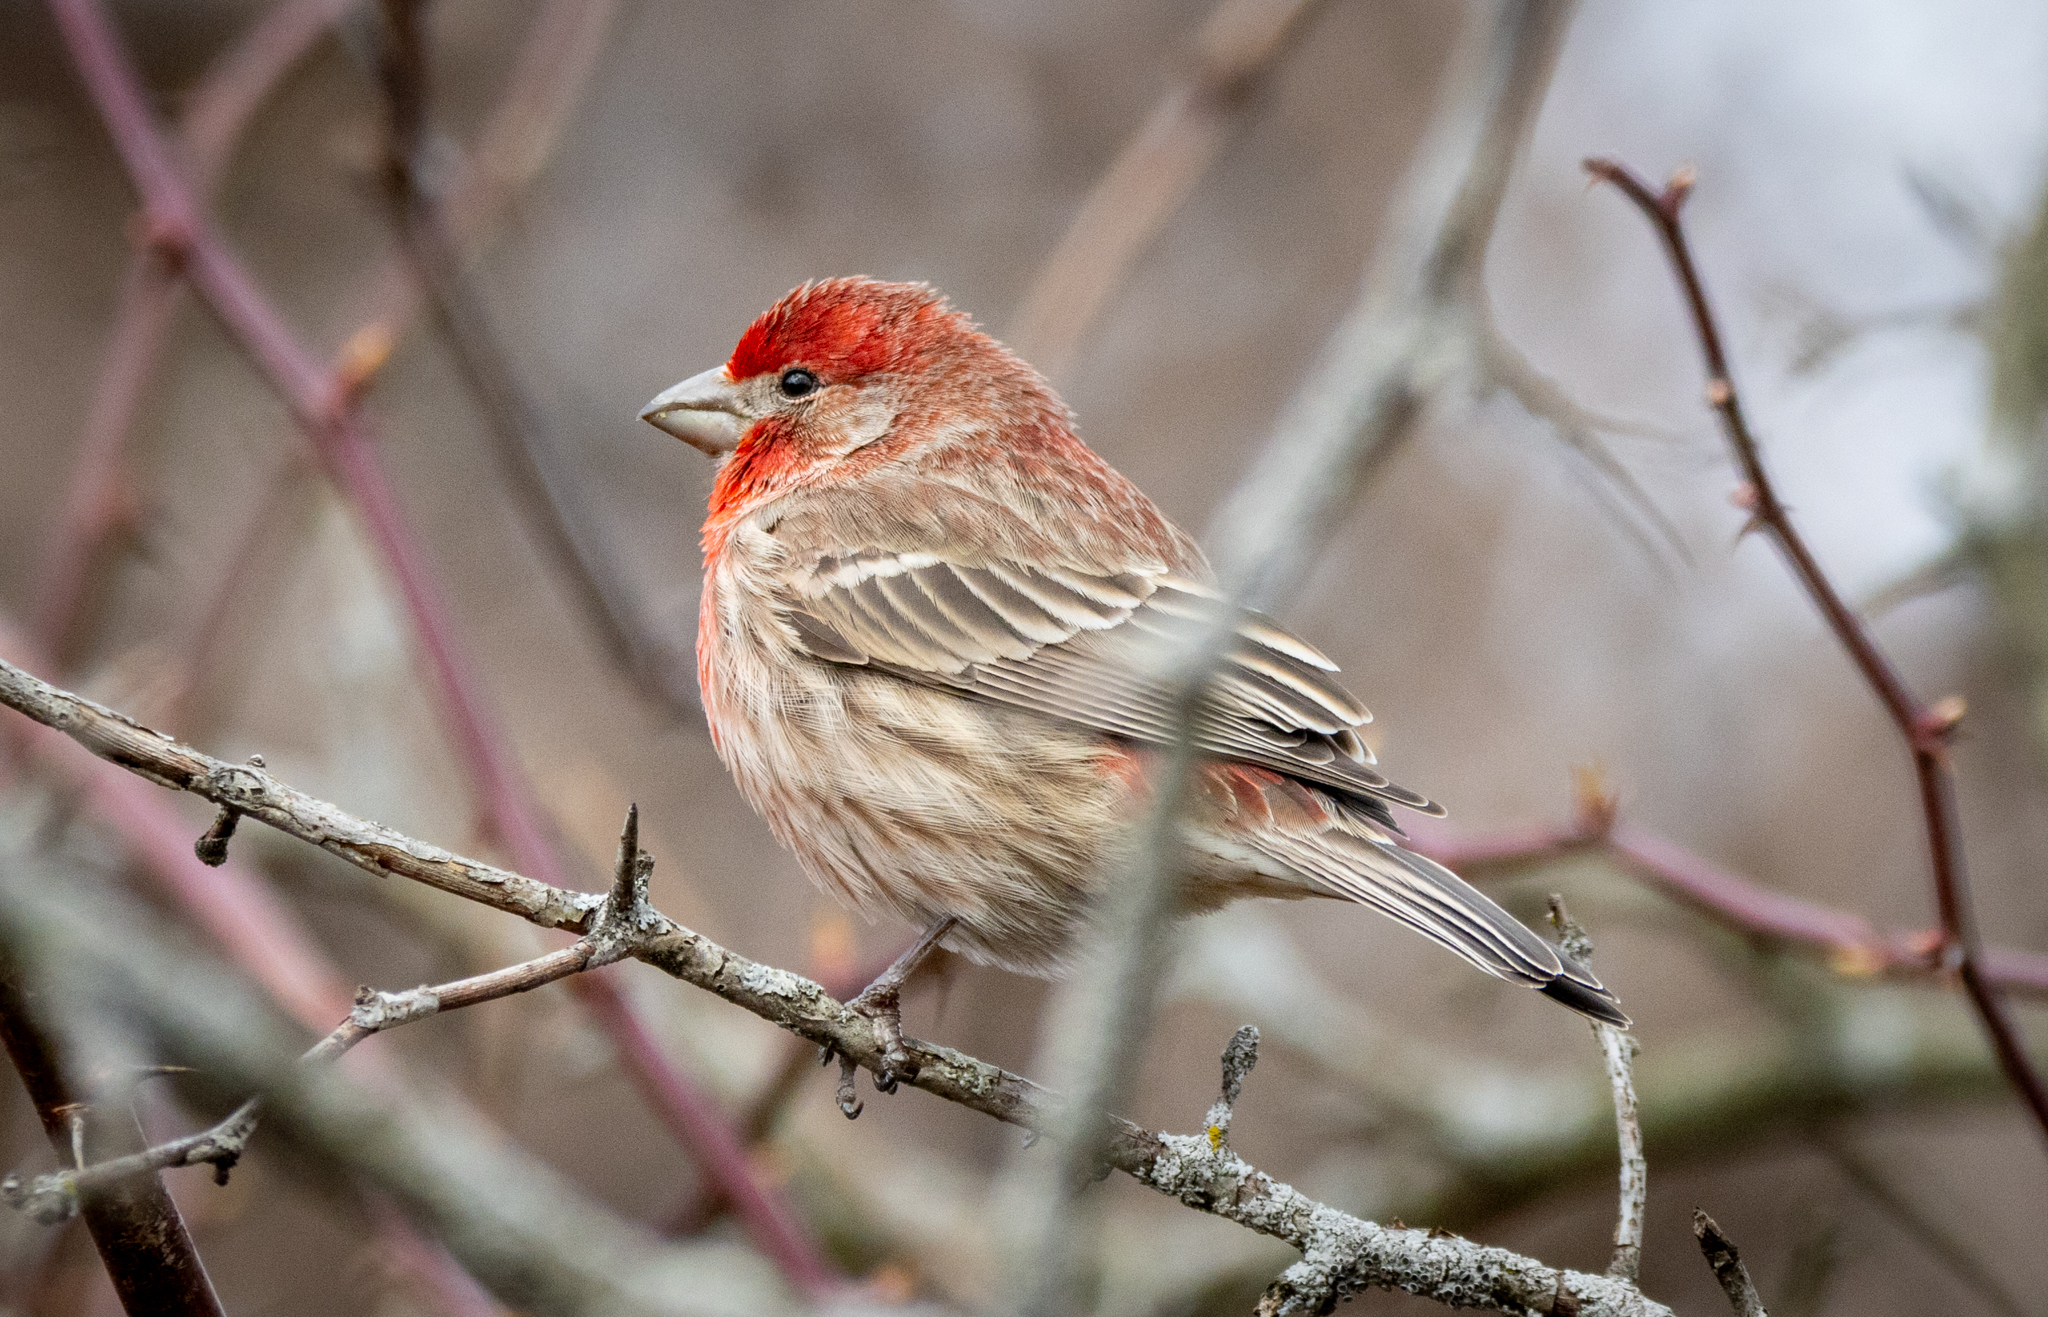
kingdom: Animalia
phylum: Chordata
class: Aves
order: Passeriformes
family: Fringillidae
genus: Haemorhous
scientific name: Haemorhous mexicanus
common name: House finch
